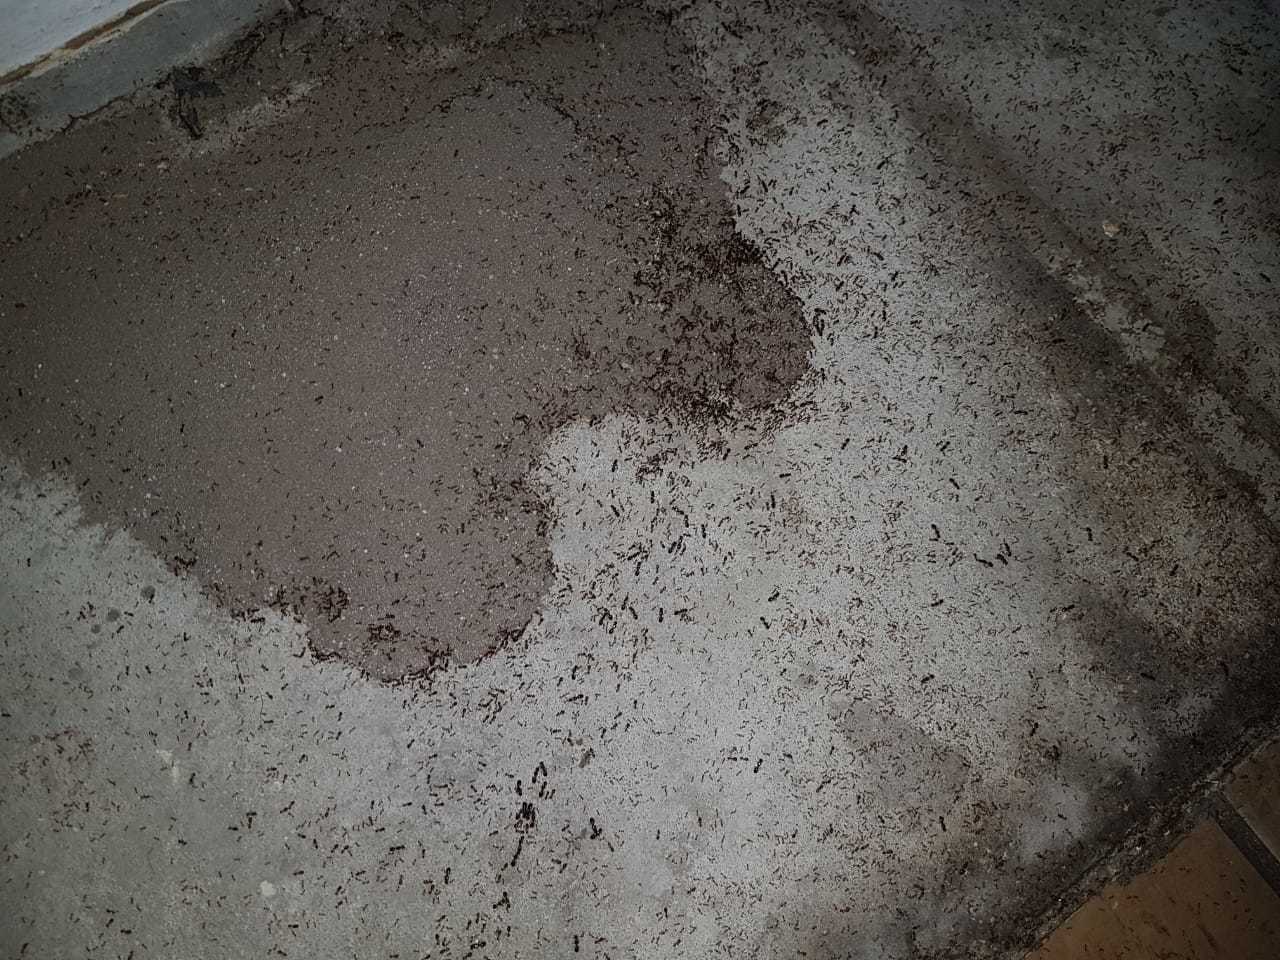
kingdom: Animalia
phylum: Arthropoda
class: Insecta
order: Hymenoptera
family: Formicidae
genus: Pheidole
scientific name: Pheidole megacephala
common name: Bigheaded ant
